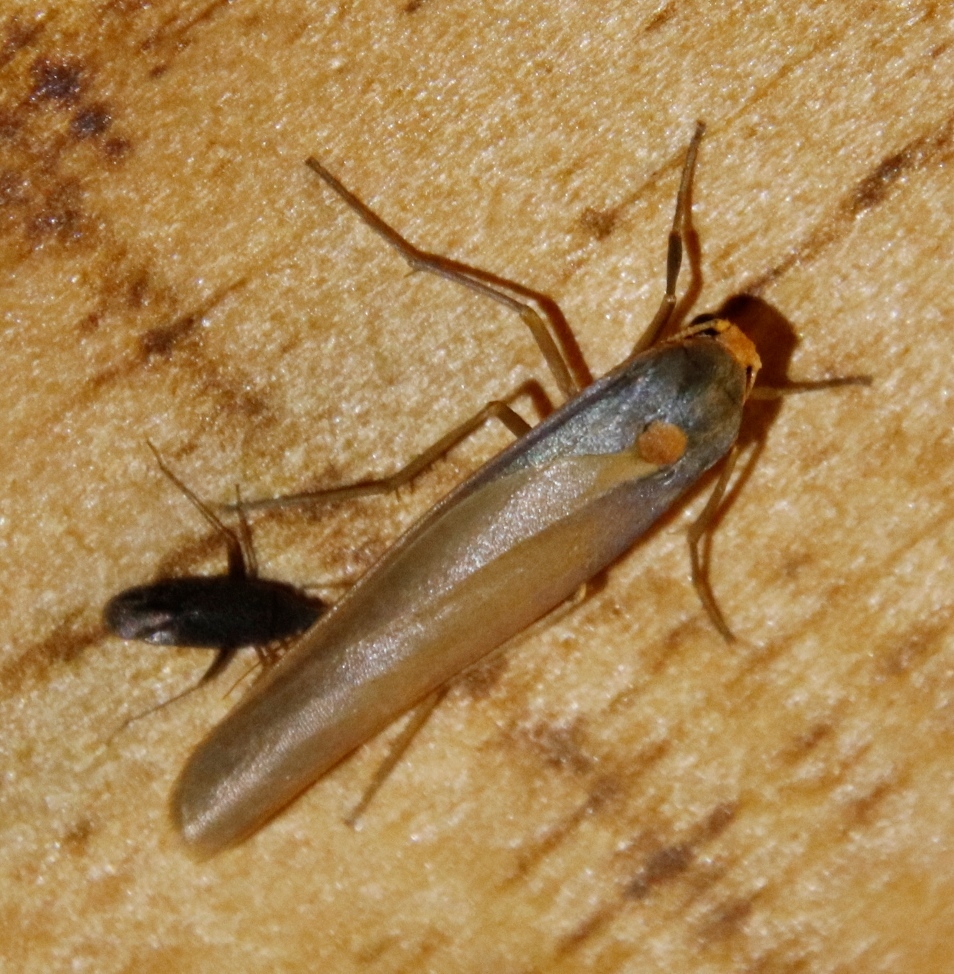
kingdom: Animalia
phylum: Arthropoda
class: Insecta
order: Lepidoptera
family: Erebidae
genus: Sozusa
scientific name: Sozusa scutellata
